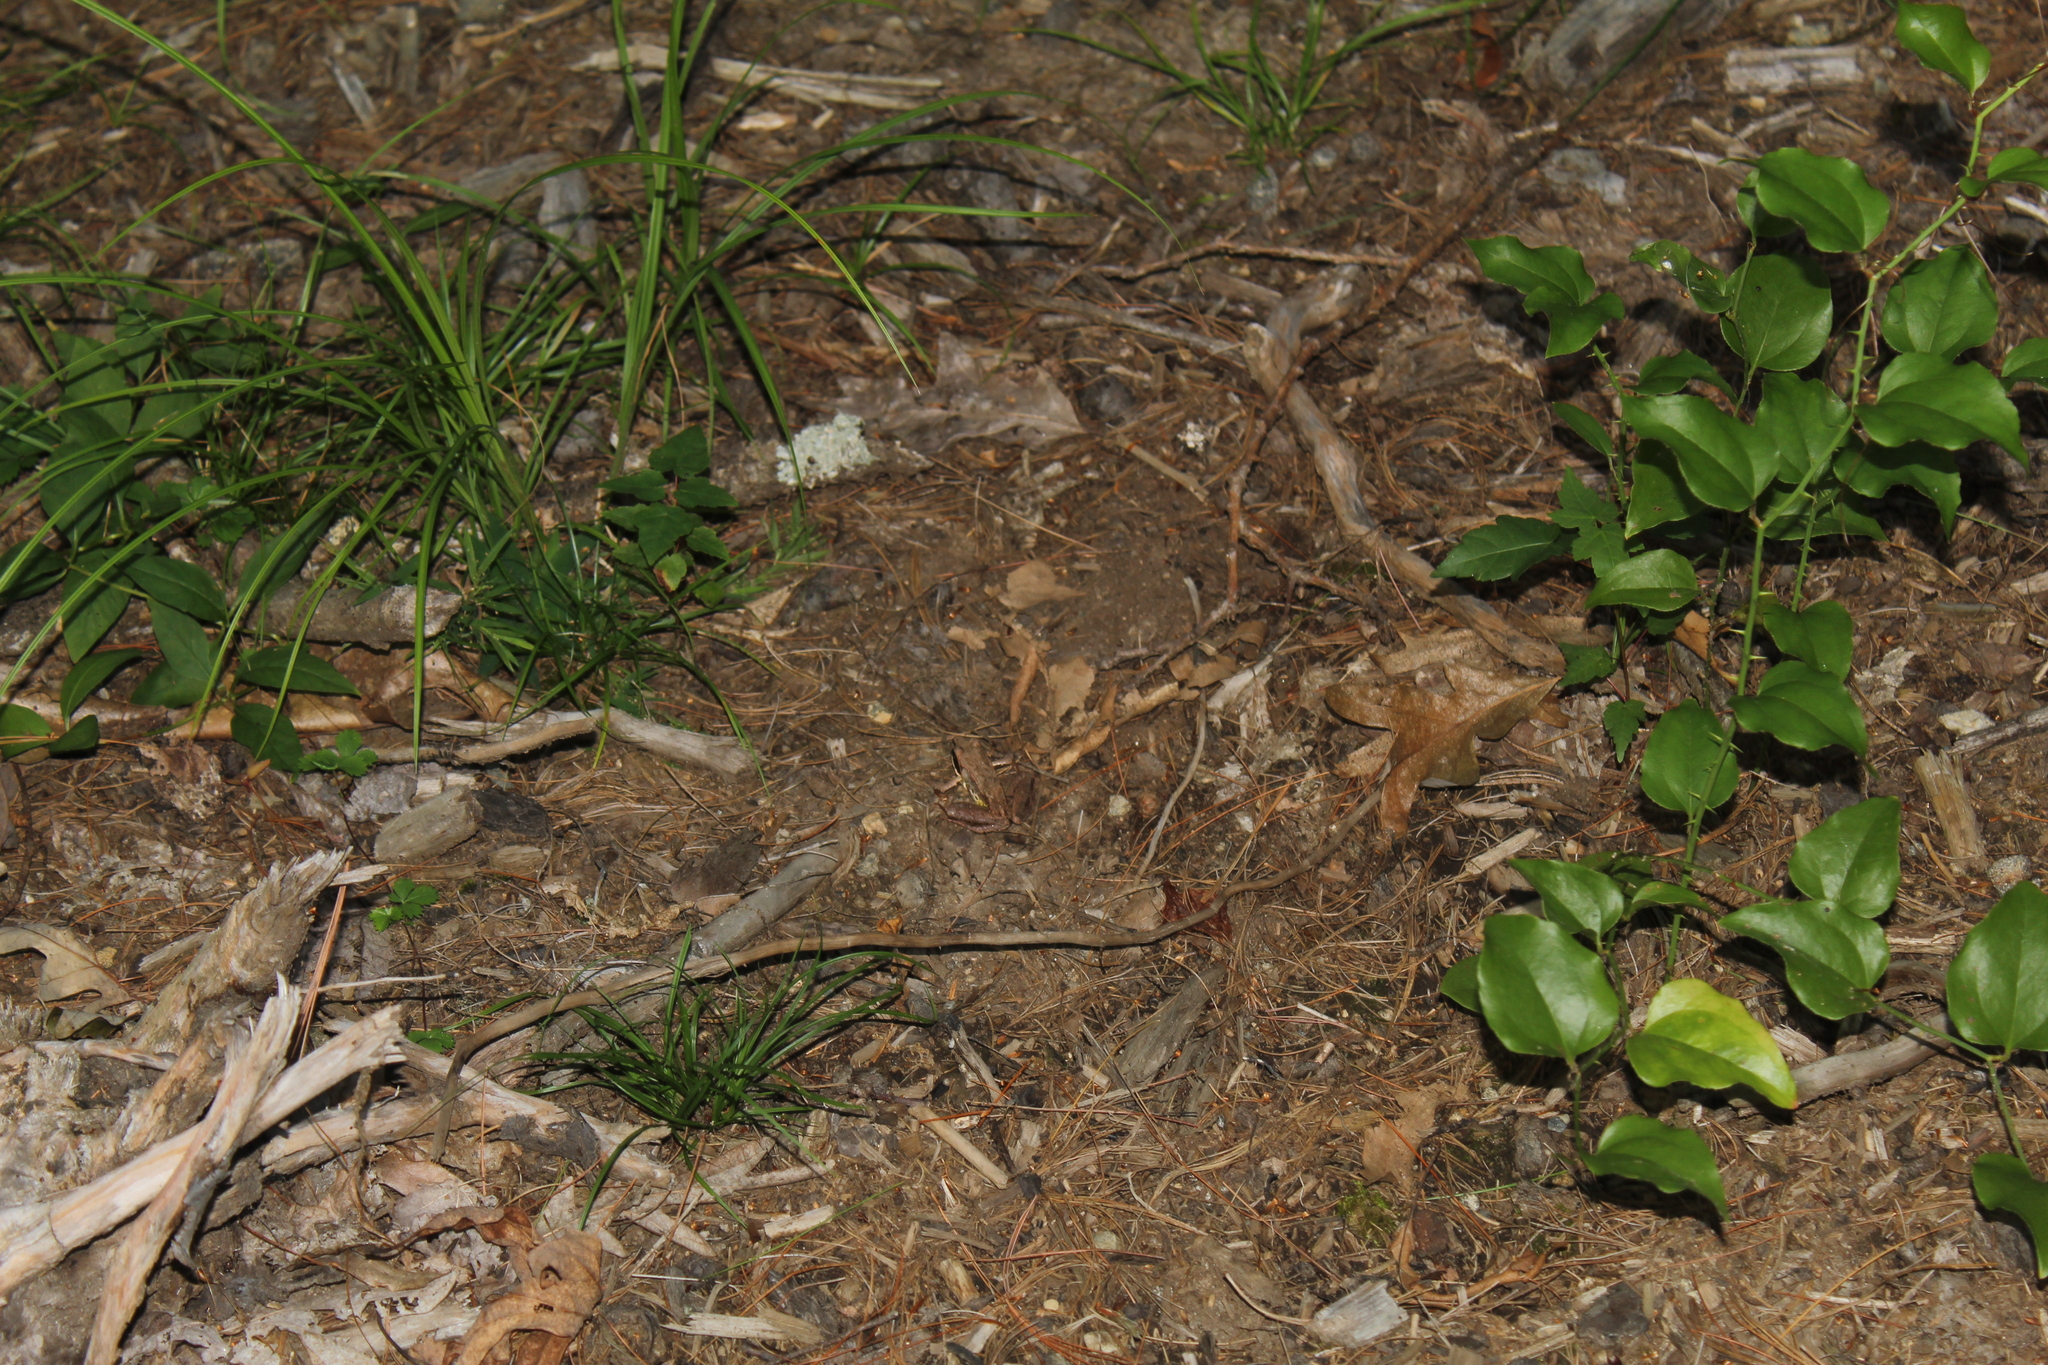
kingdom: Animalia
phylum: Chordata
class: Amphibia
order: Anura
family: Ranidae
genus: Lithobates
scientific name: Lithobates sylvaticus
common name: Wood frog
